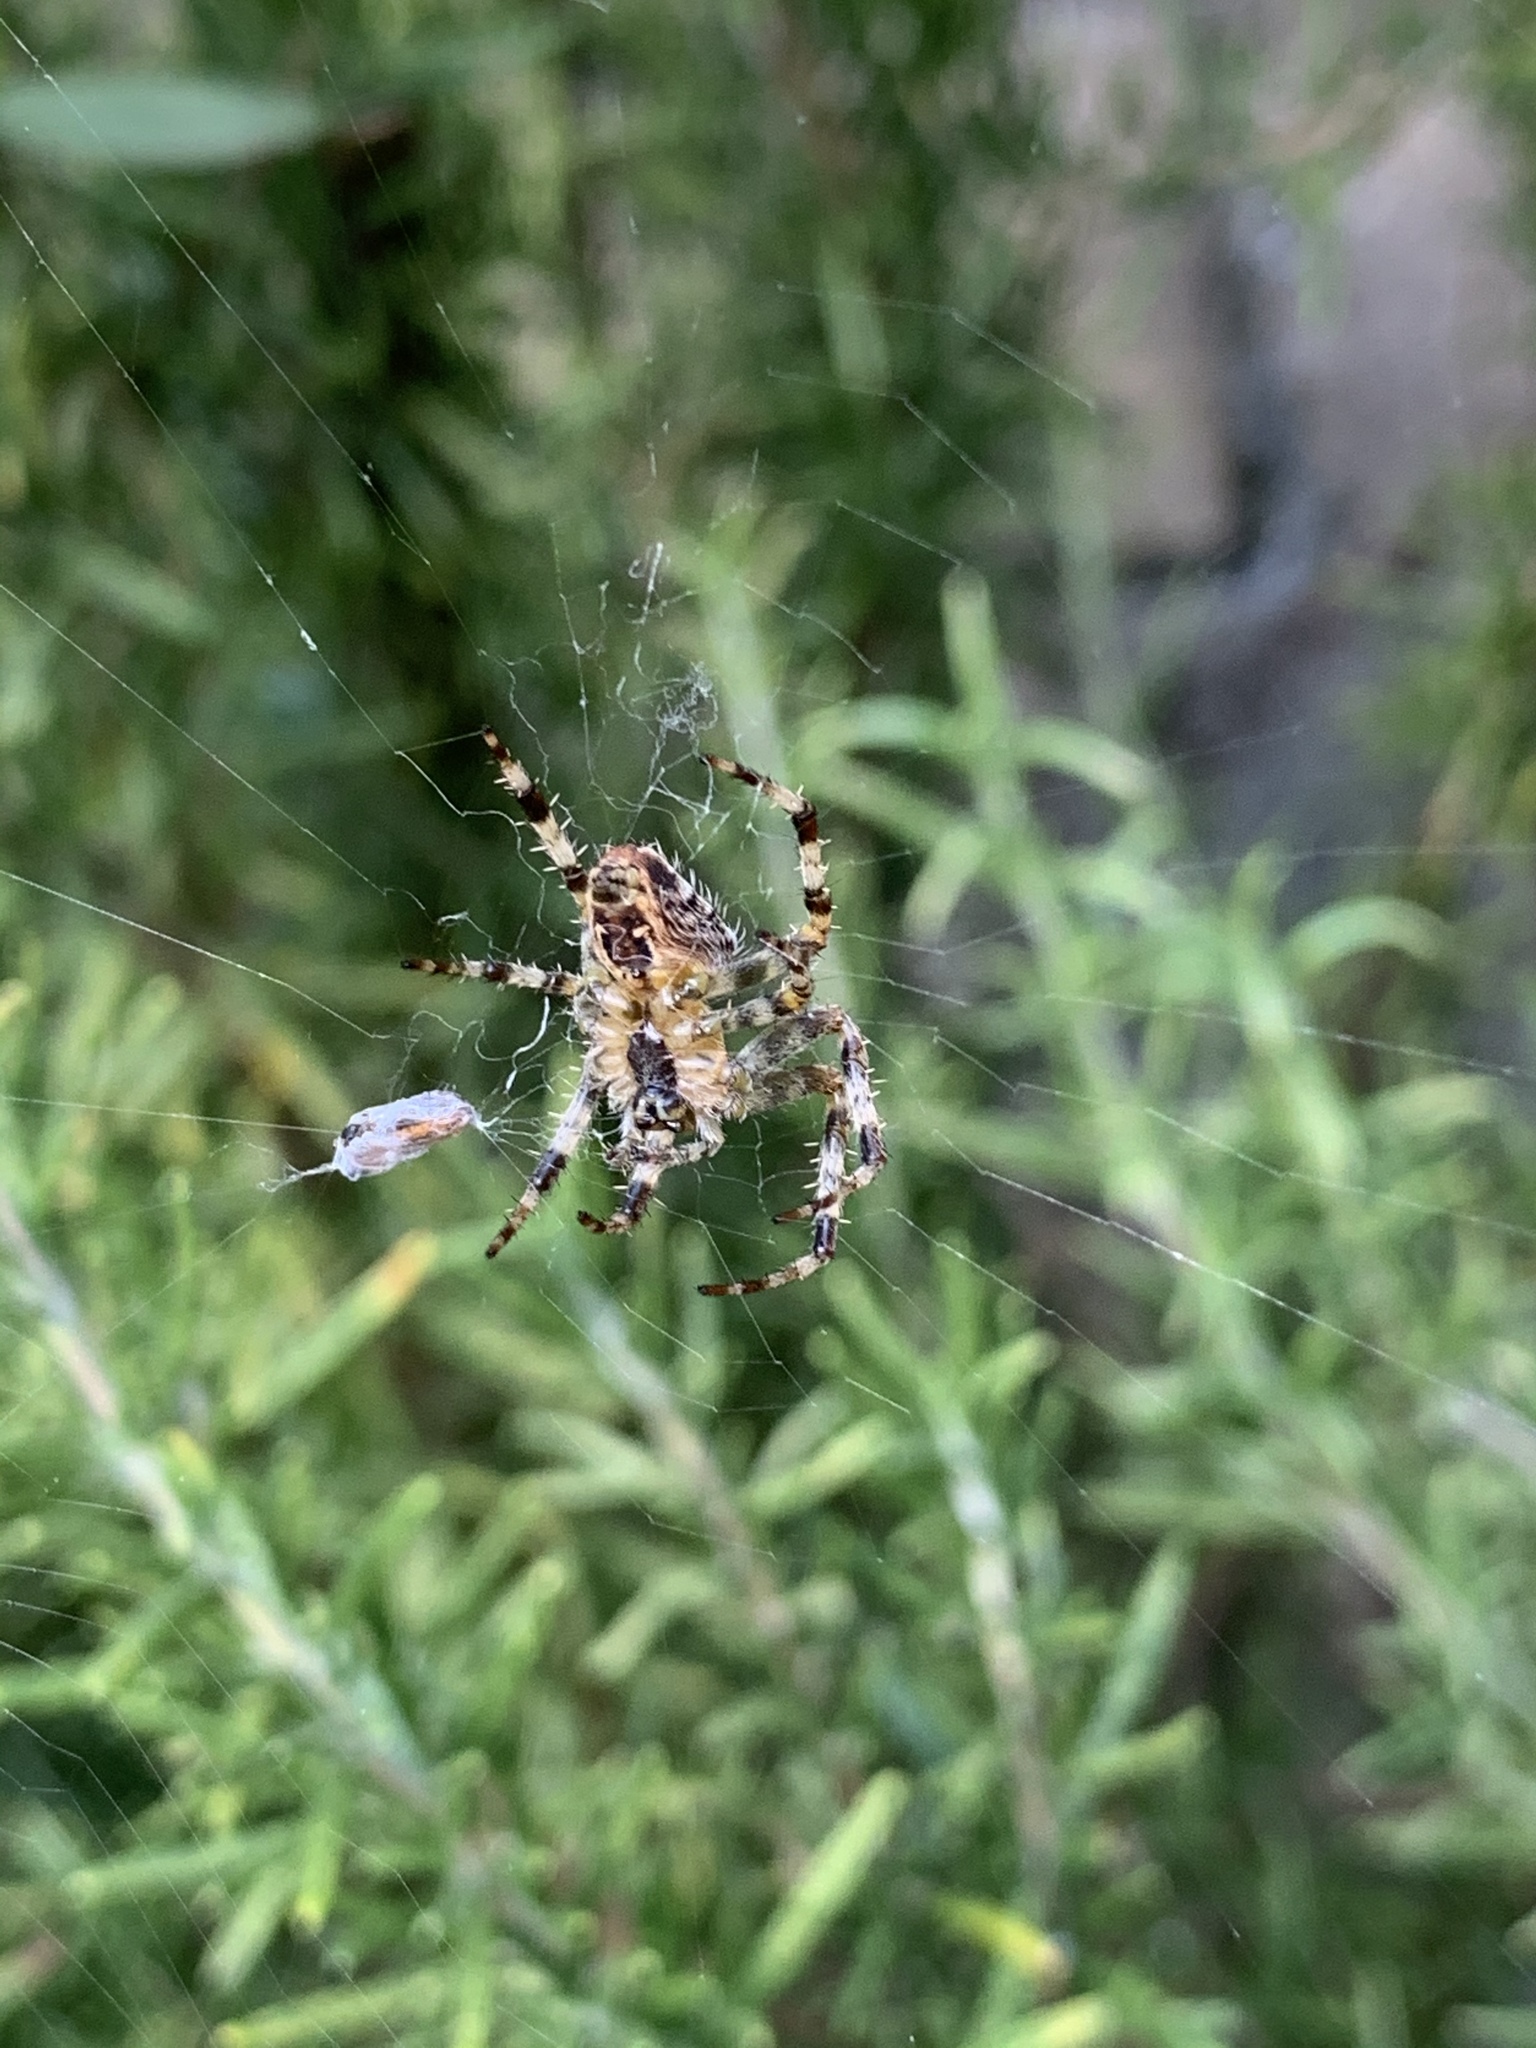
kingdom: Animalia
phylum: Arthropoda
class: Arachnida
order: Araneae
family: Araneidae
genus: Araneus
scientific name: Araneus diadematus
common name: Cross orbweaver
